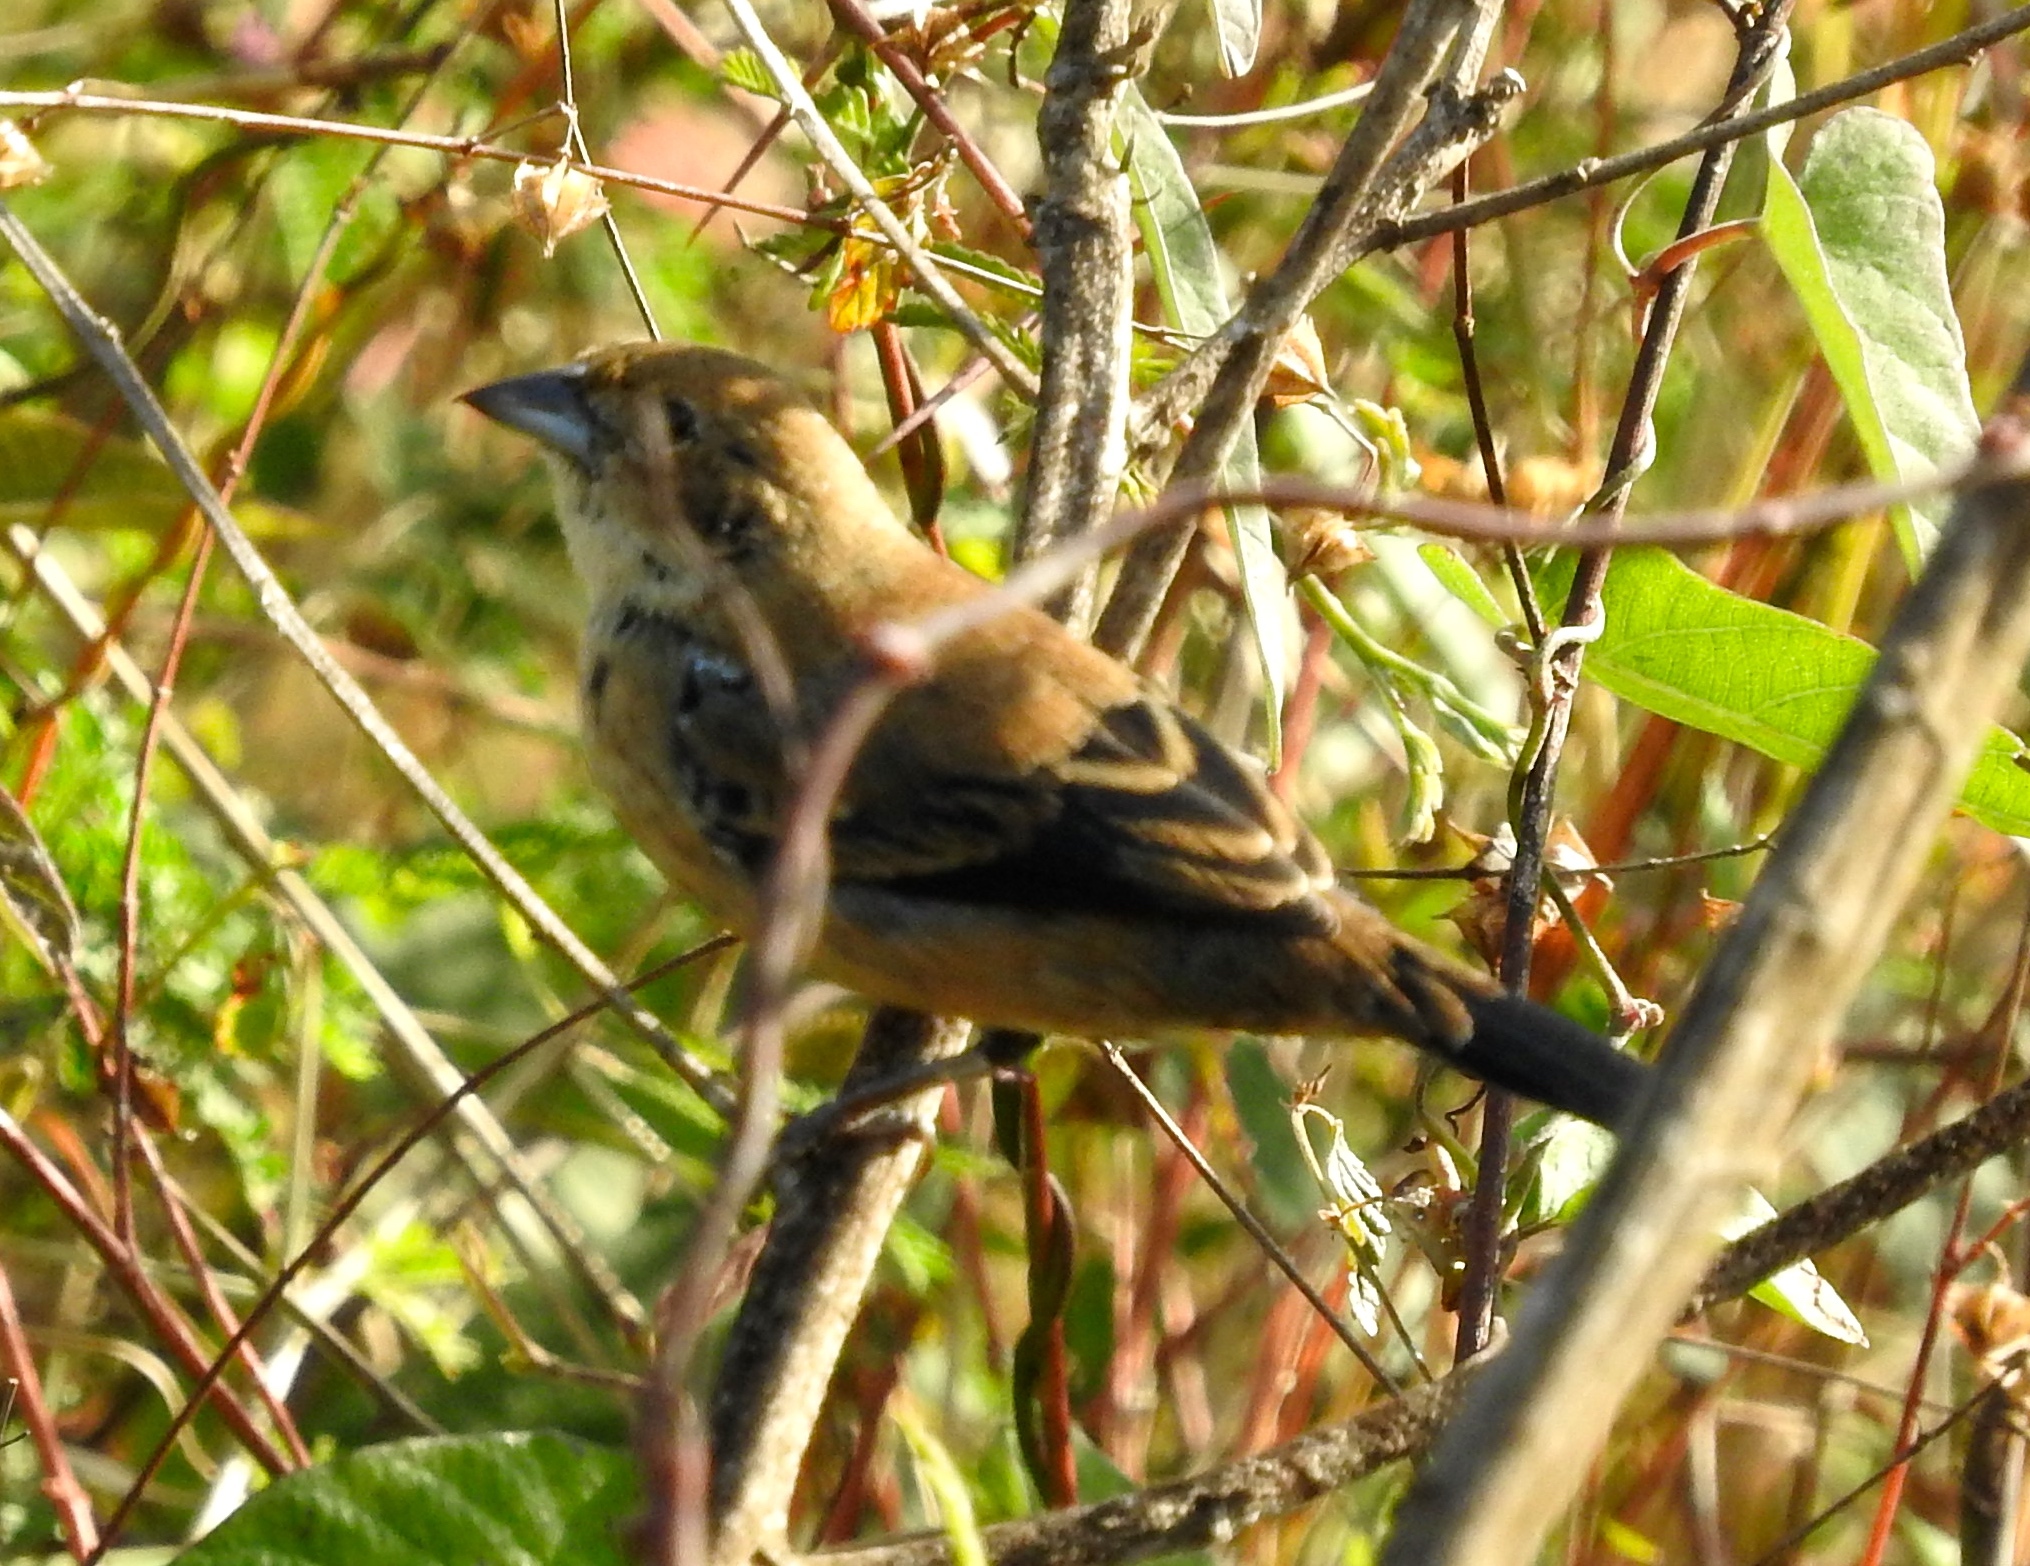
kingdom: Animalia
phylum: Chordata
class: Aves
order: Passeriformes
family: Thraupidae
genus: Volatinia
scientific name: Volatinia jacarina
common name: Blue-black grassquit
